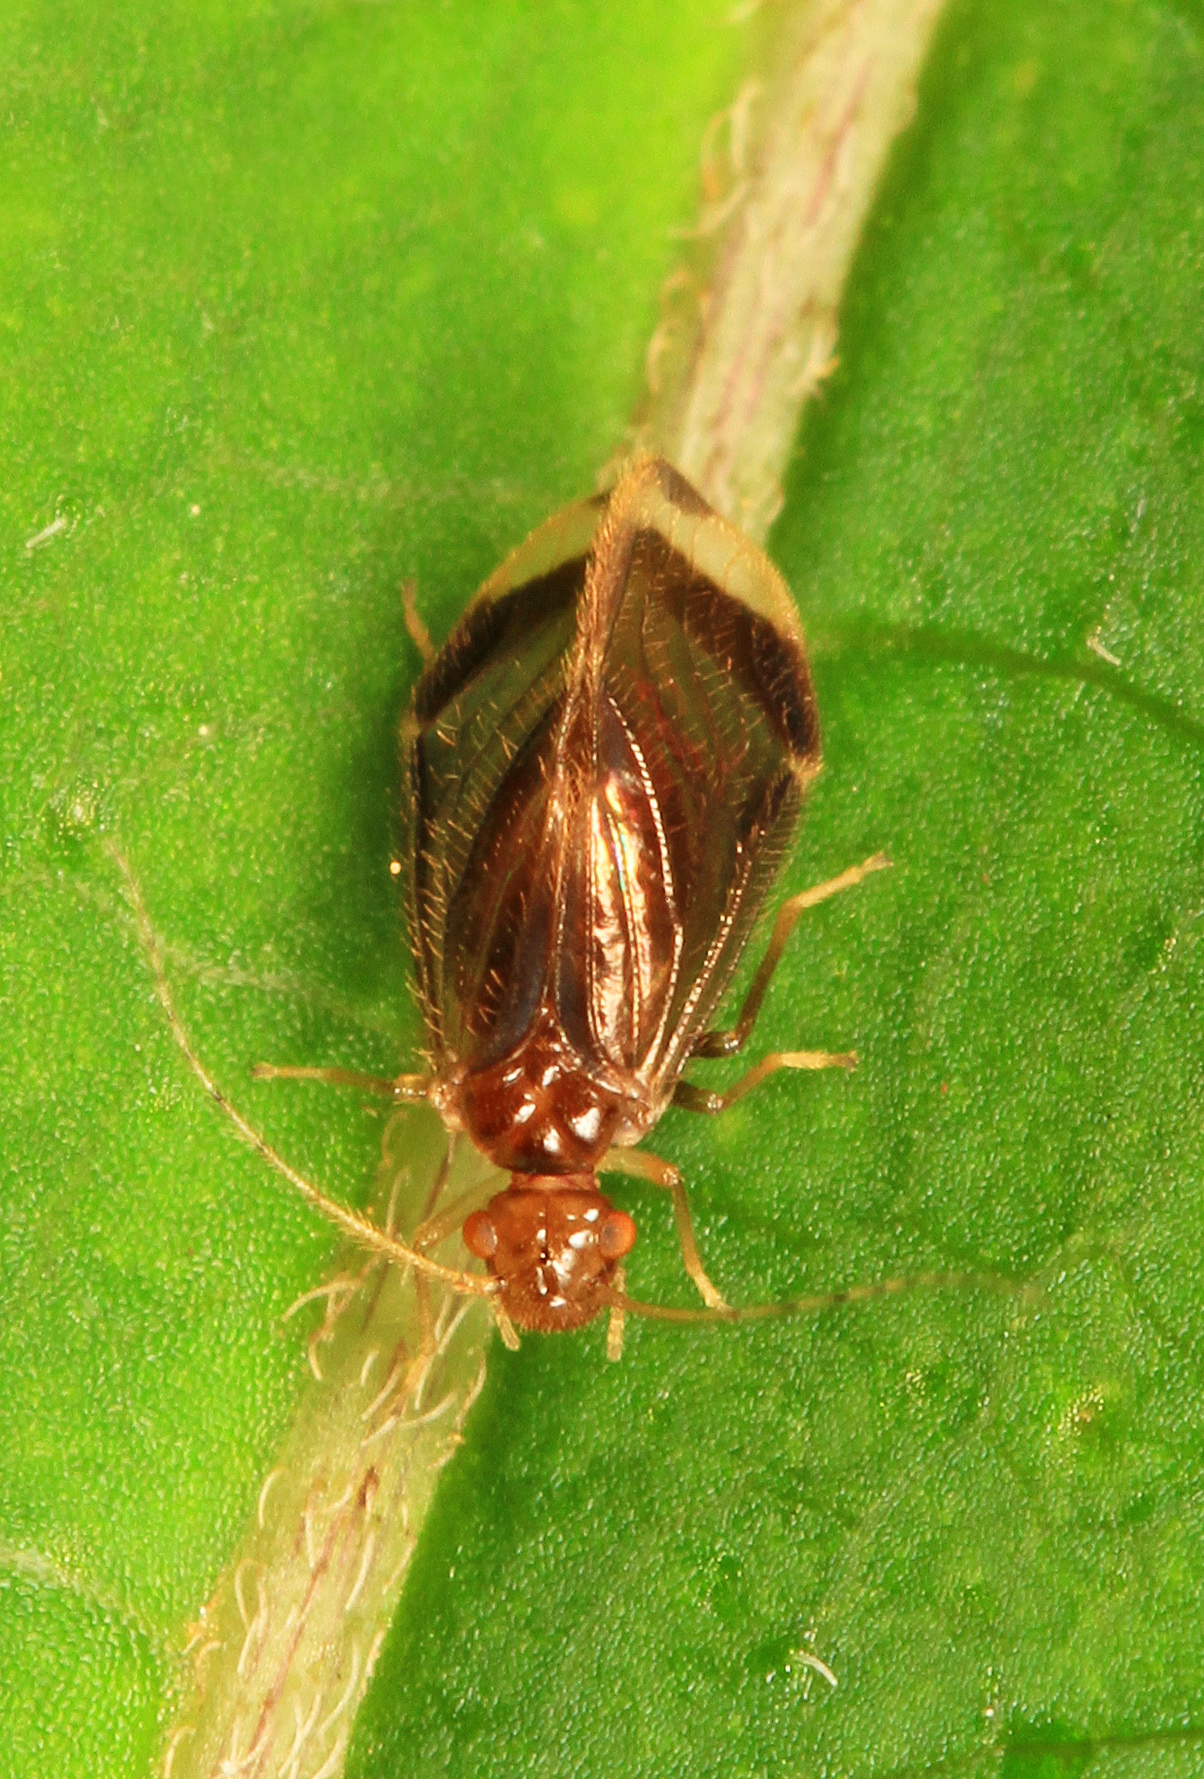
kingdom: Animalia
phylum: Arthropoda
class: Insecta
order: Psocodea
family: Amphipsocidae
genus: Polypsocus
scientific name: Polypsocus corruptus
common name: Corrupt barklouse
